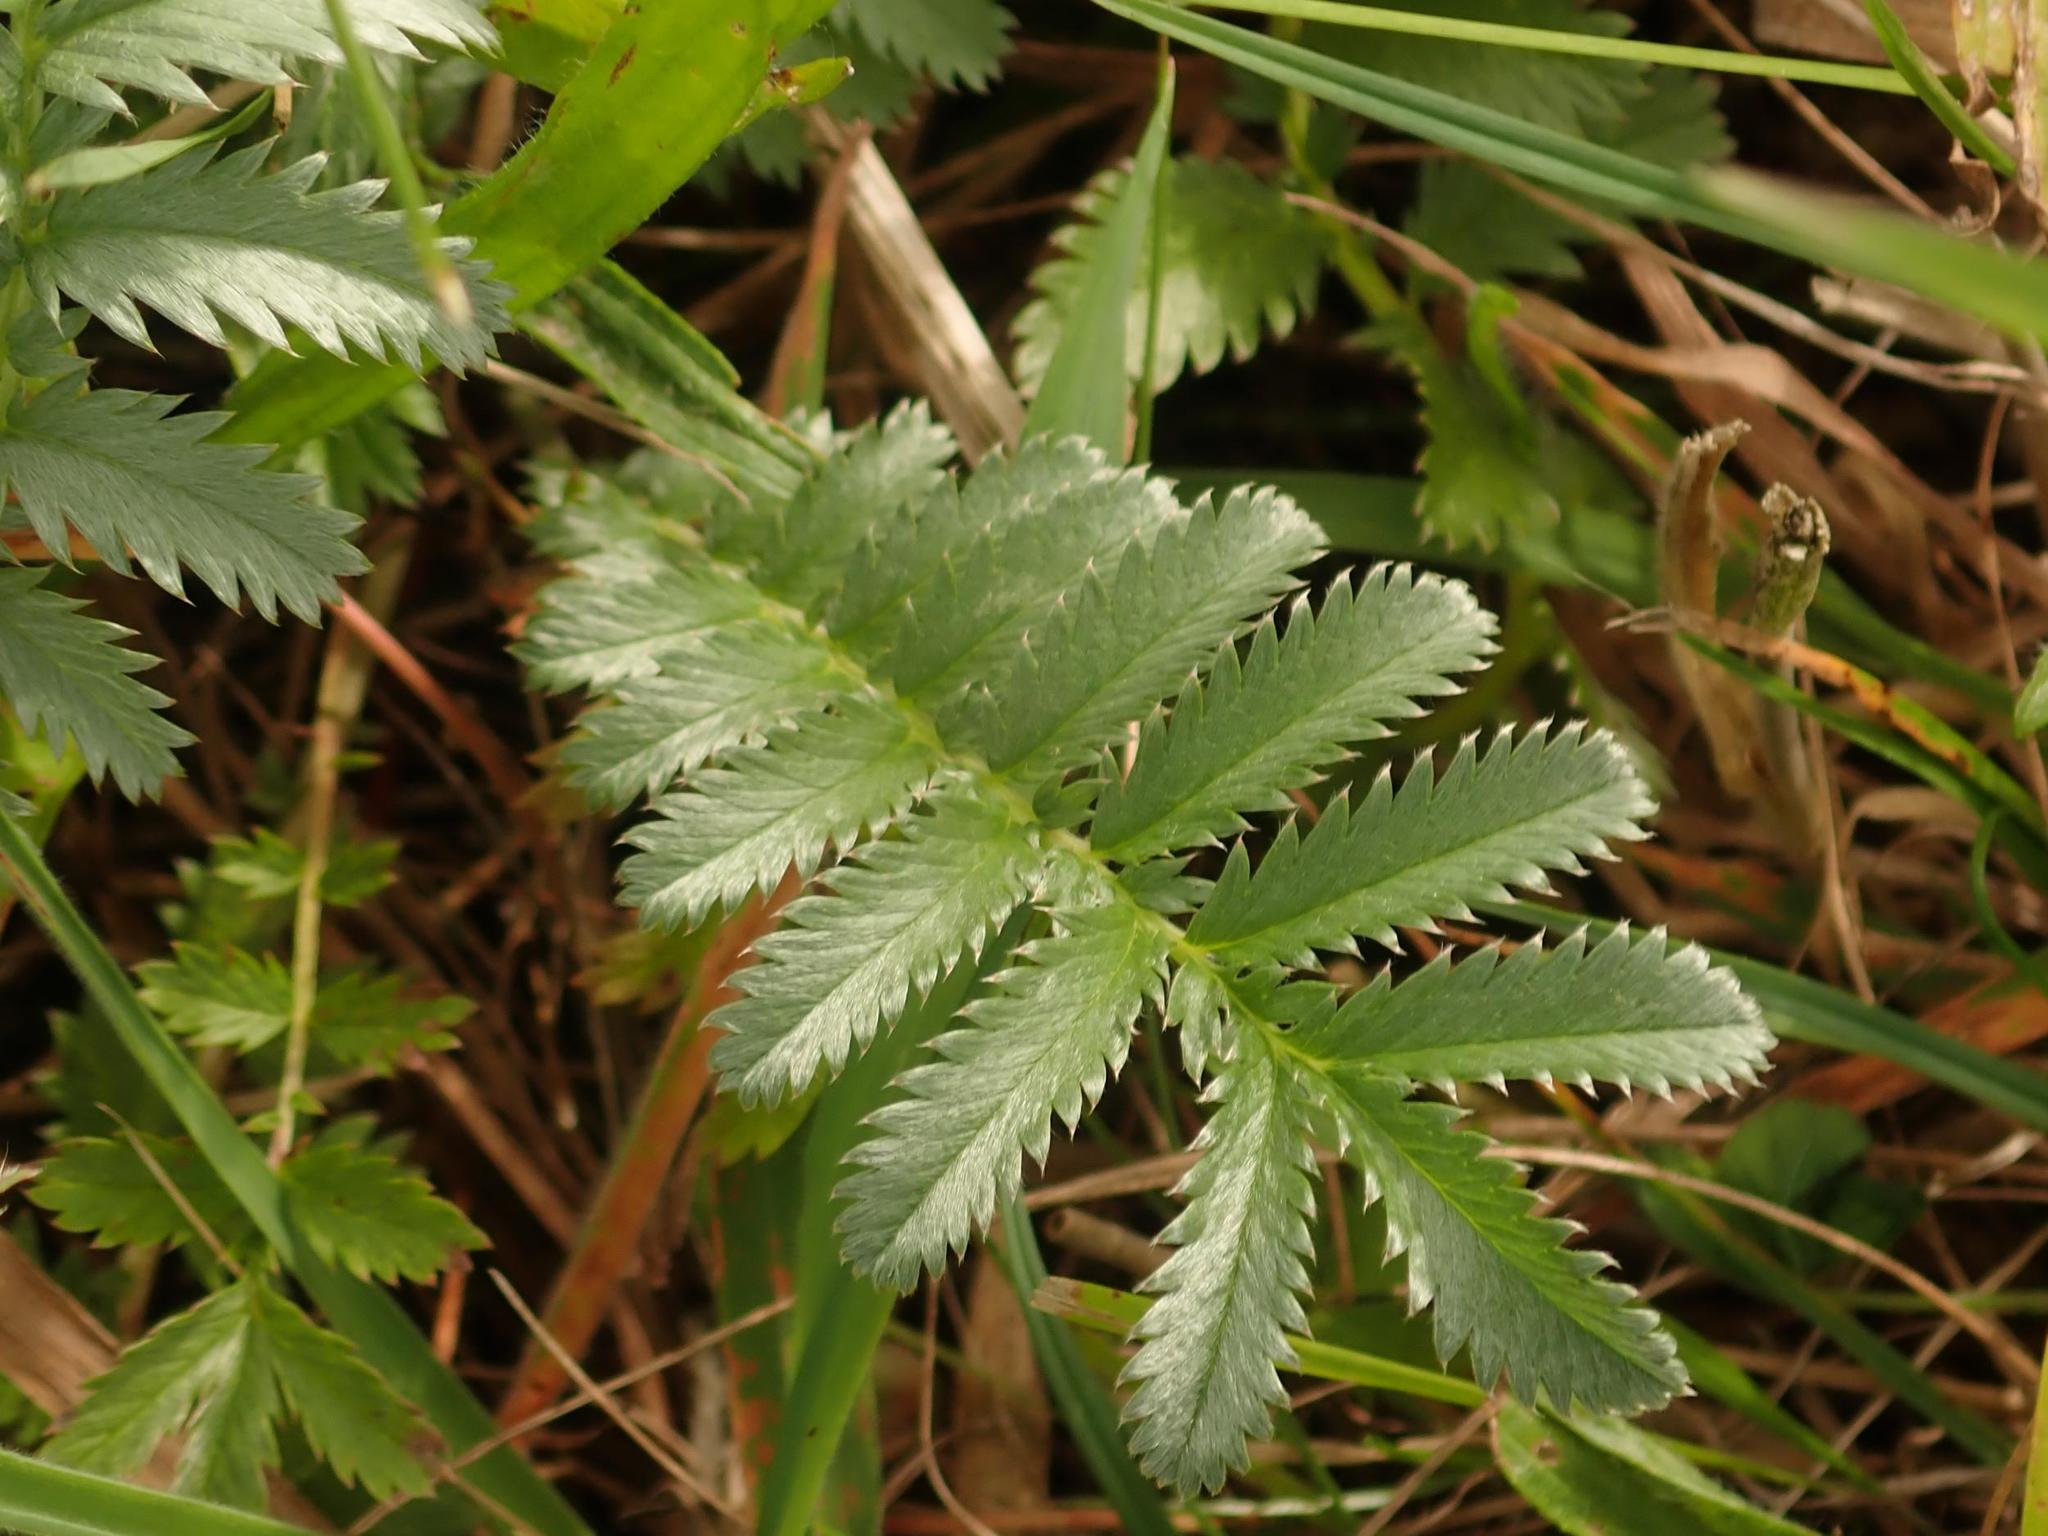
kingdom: Plantae
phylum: Tracheophyta
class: Magnoliopsida
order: Rosales
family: Rosaceae
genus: Argentina
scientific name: Argentina anserina
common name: Common silverweed
